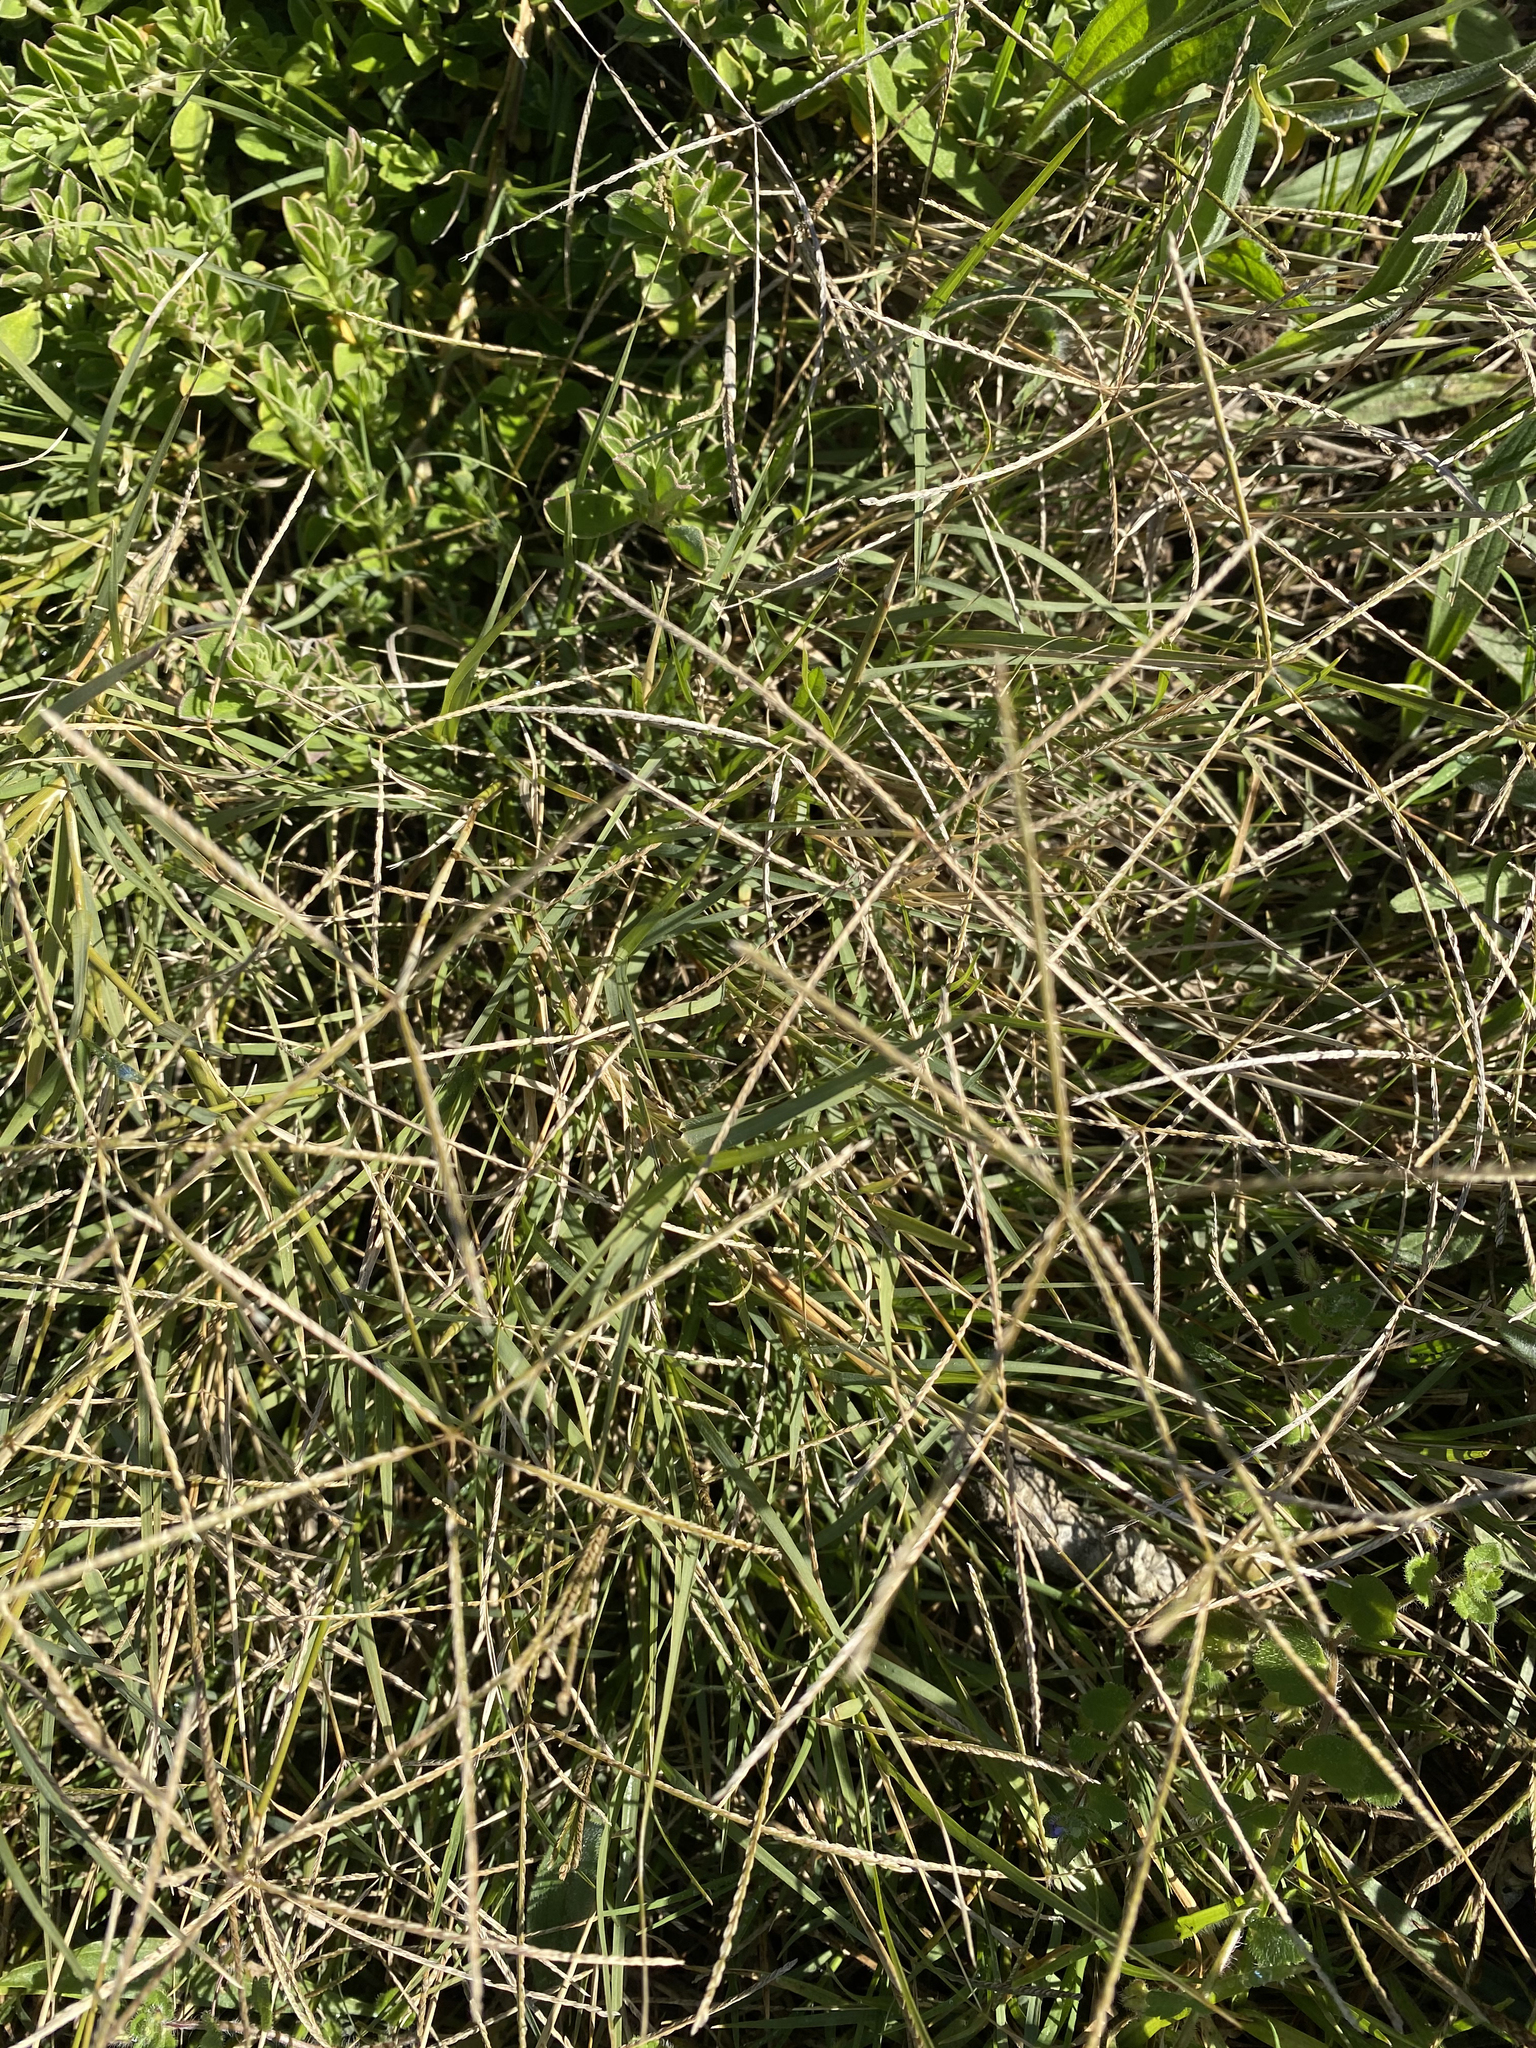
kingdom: Plantae
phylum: Tracheophyta
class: Liliopsida
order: Poales
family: Poaceae
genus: Cynodon
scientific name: Cynodon dactylon
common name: Bermuda grass
